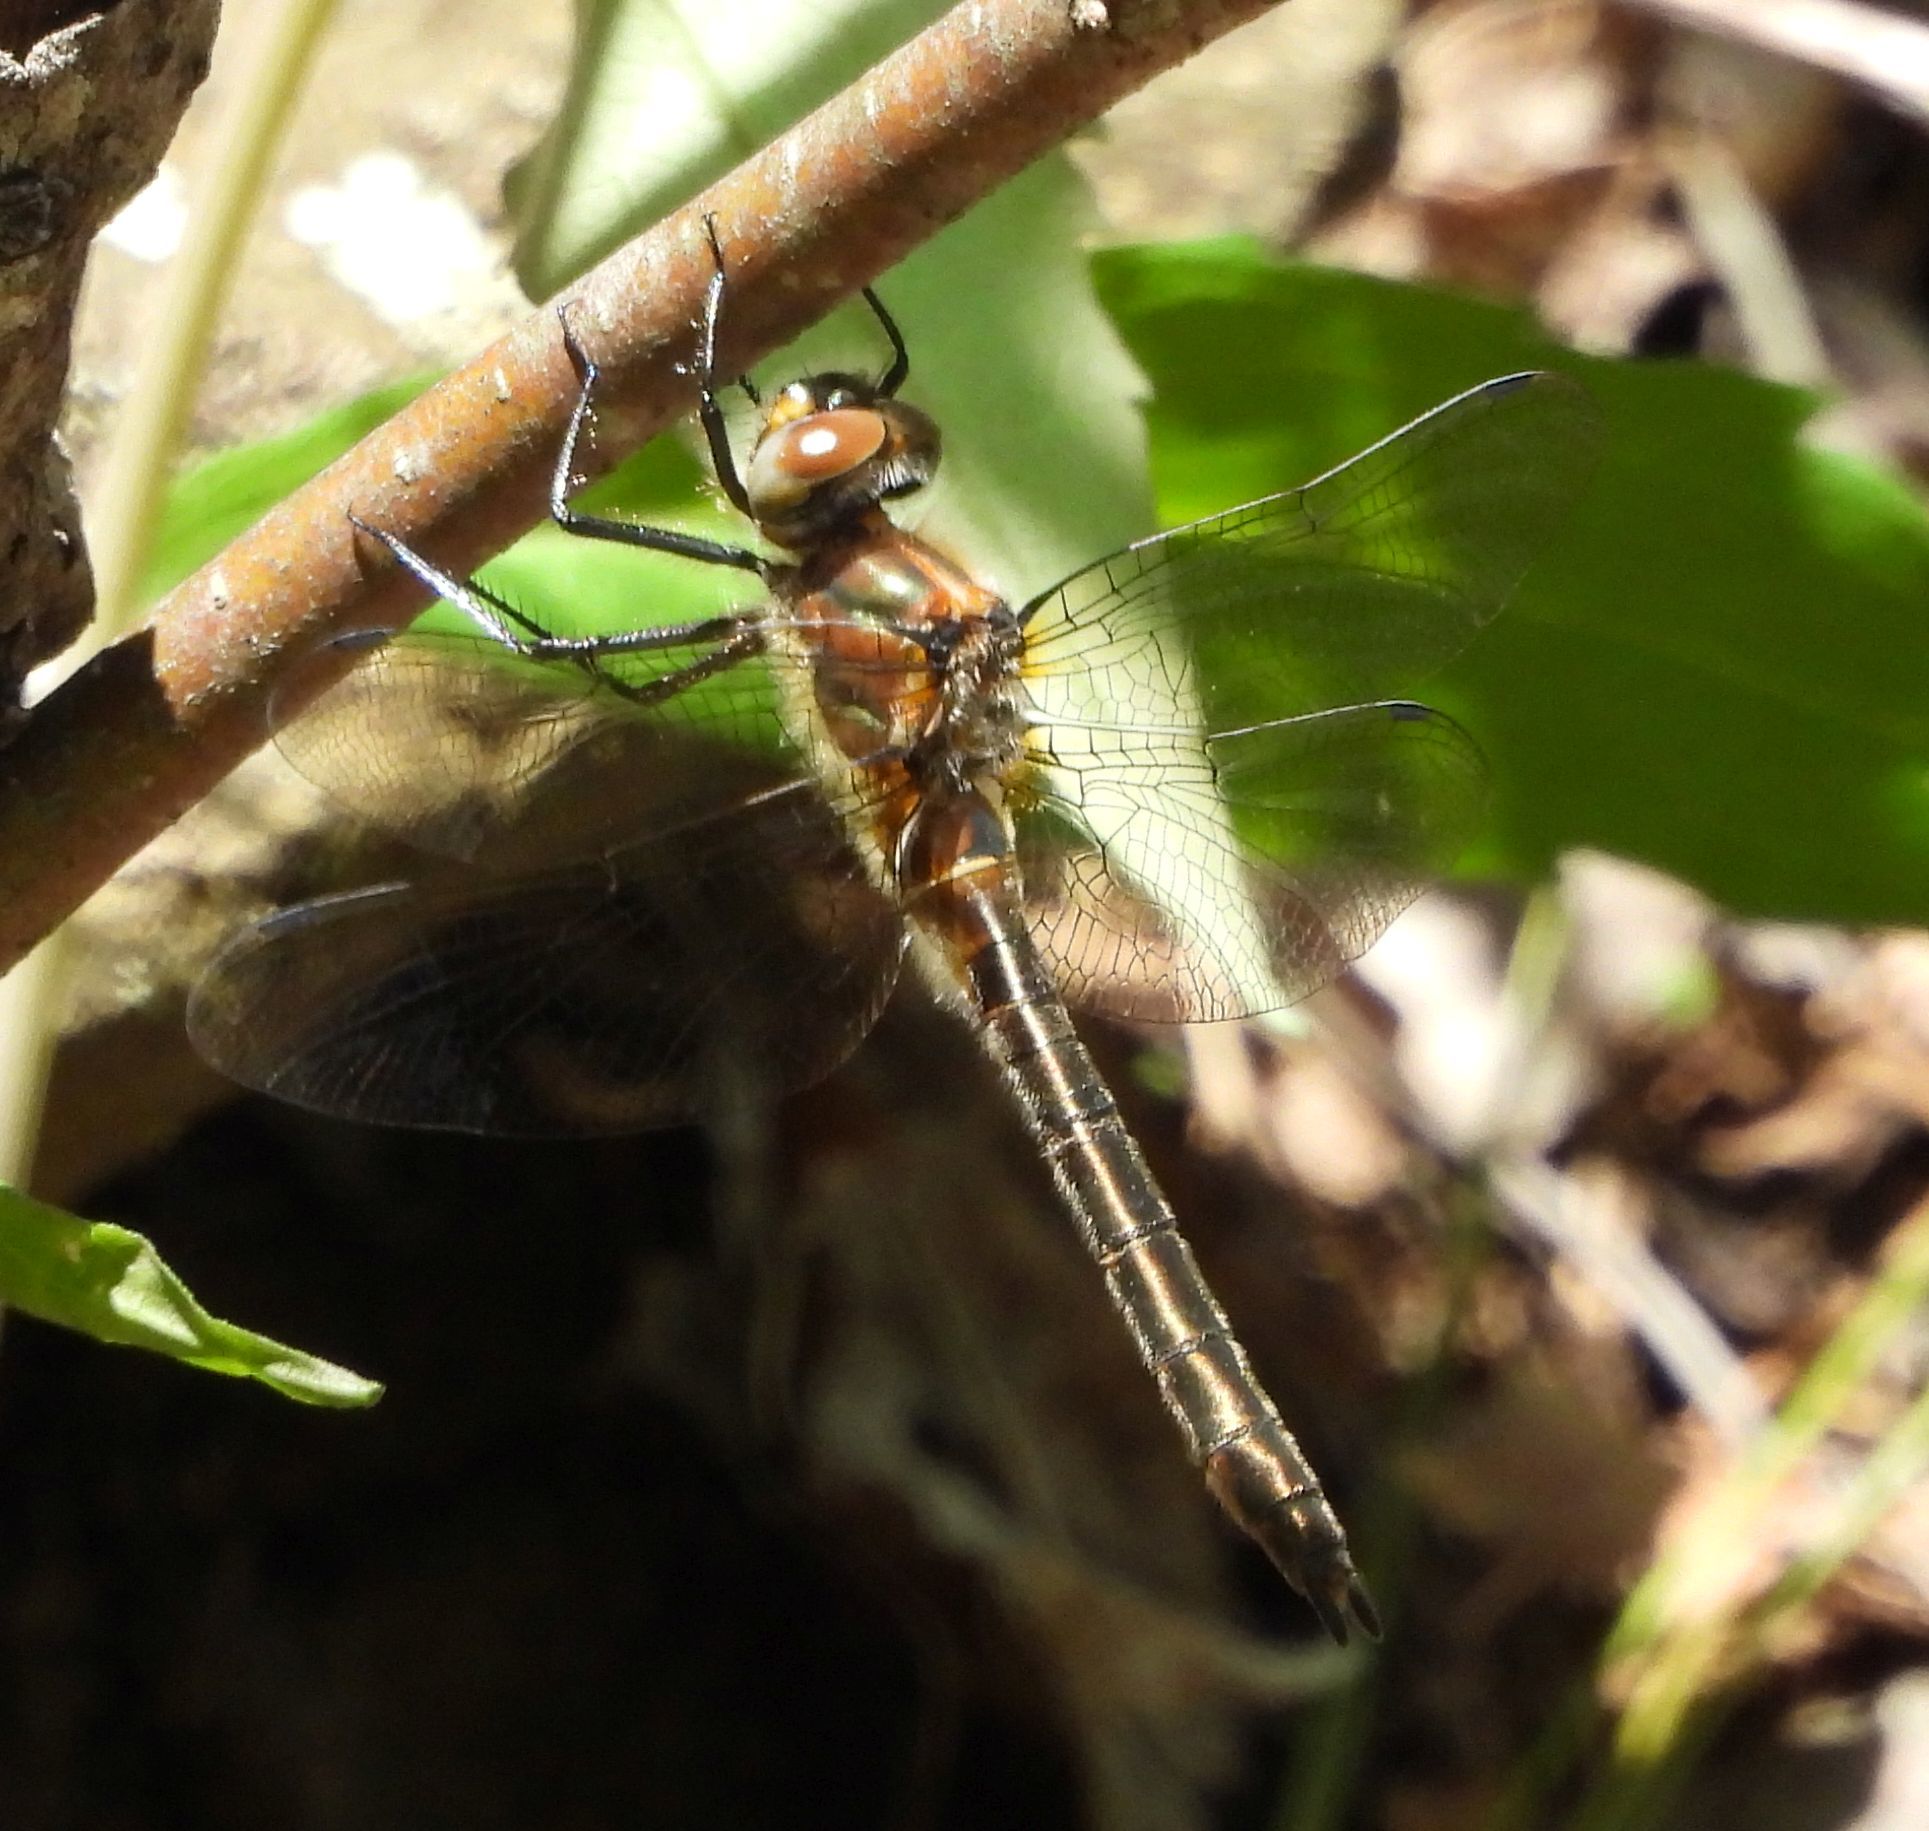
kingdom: Animalia
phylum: Arthropoda
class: Insecta
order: Odonata
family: Corduliidae
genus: Cordulia
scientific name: Cordulia shurtleffii
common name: American emerald
